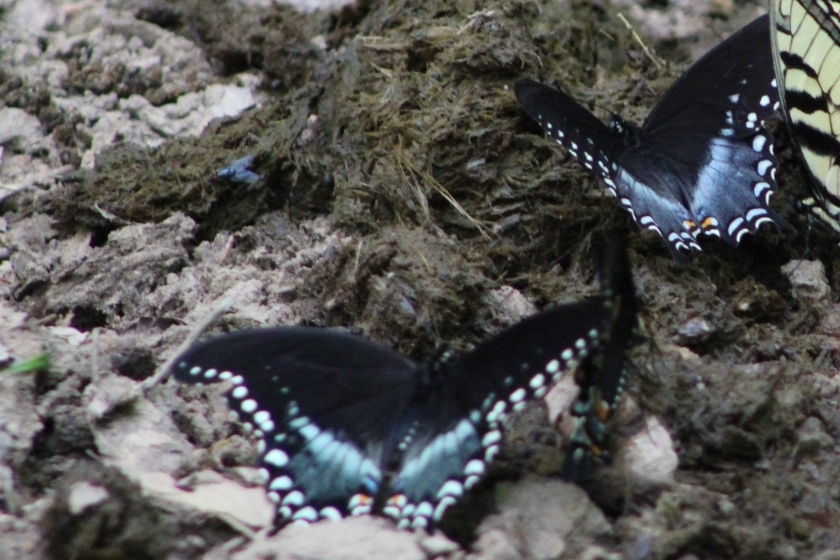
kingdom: Animalia
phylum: Arthropoda
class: Insecta
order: Lepidoptera
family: Papilionidae
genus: Papilio
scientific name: Papilio troilus
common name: Spicebush swallowtail
